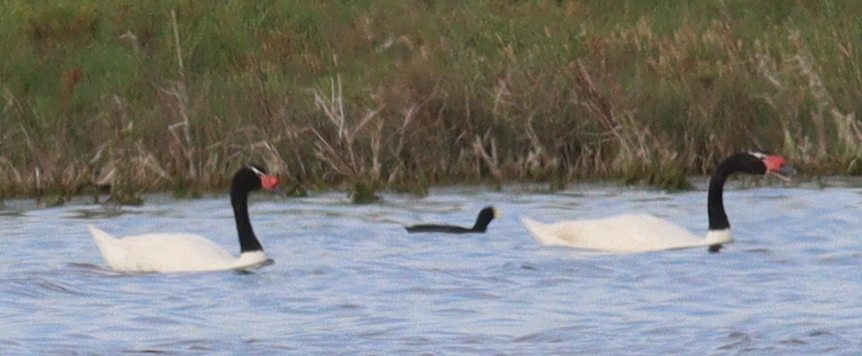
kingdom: Animalia
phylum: Chordata
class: Aves
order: Anseriformes
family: Anatidae
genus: Cygnus
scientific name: Cygnus melancoryphus
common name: Black-necked swan
